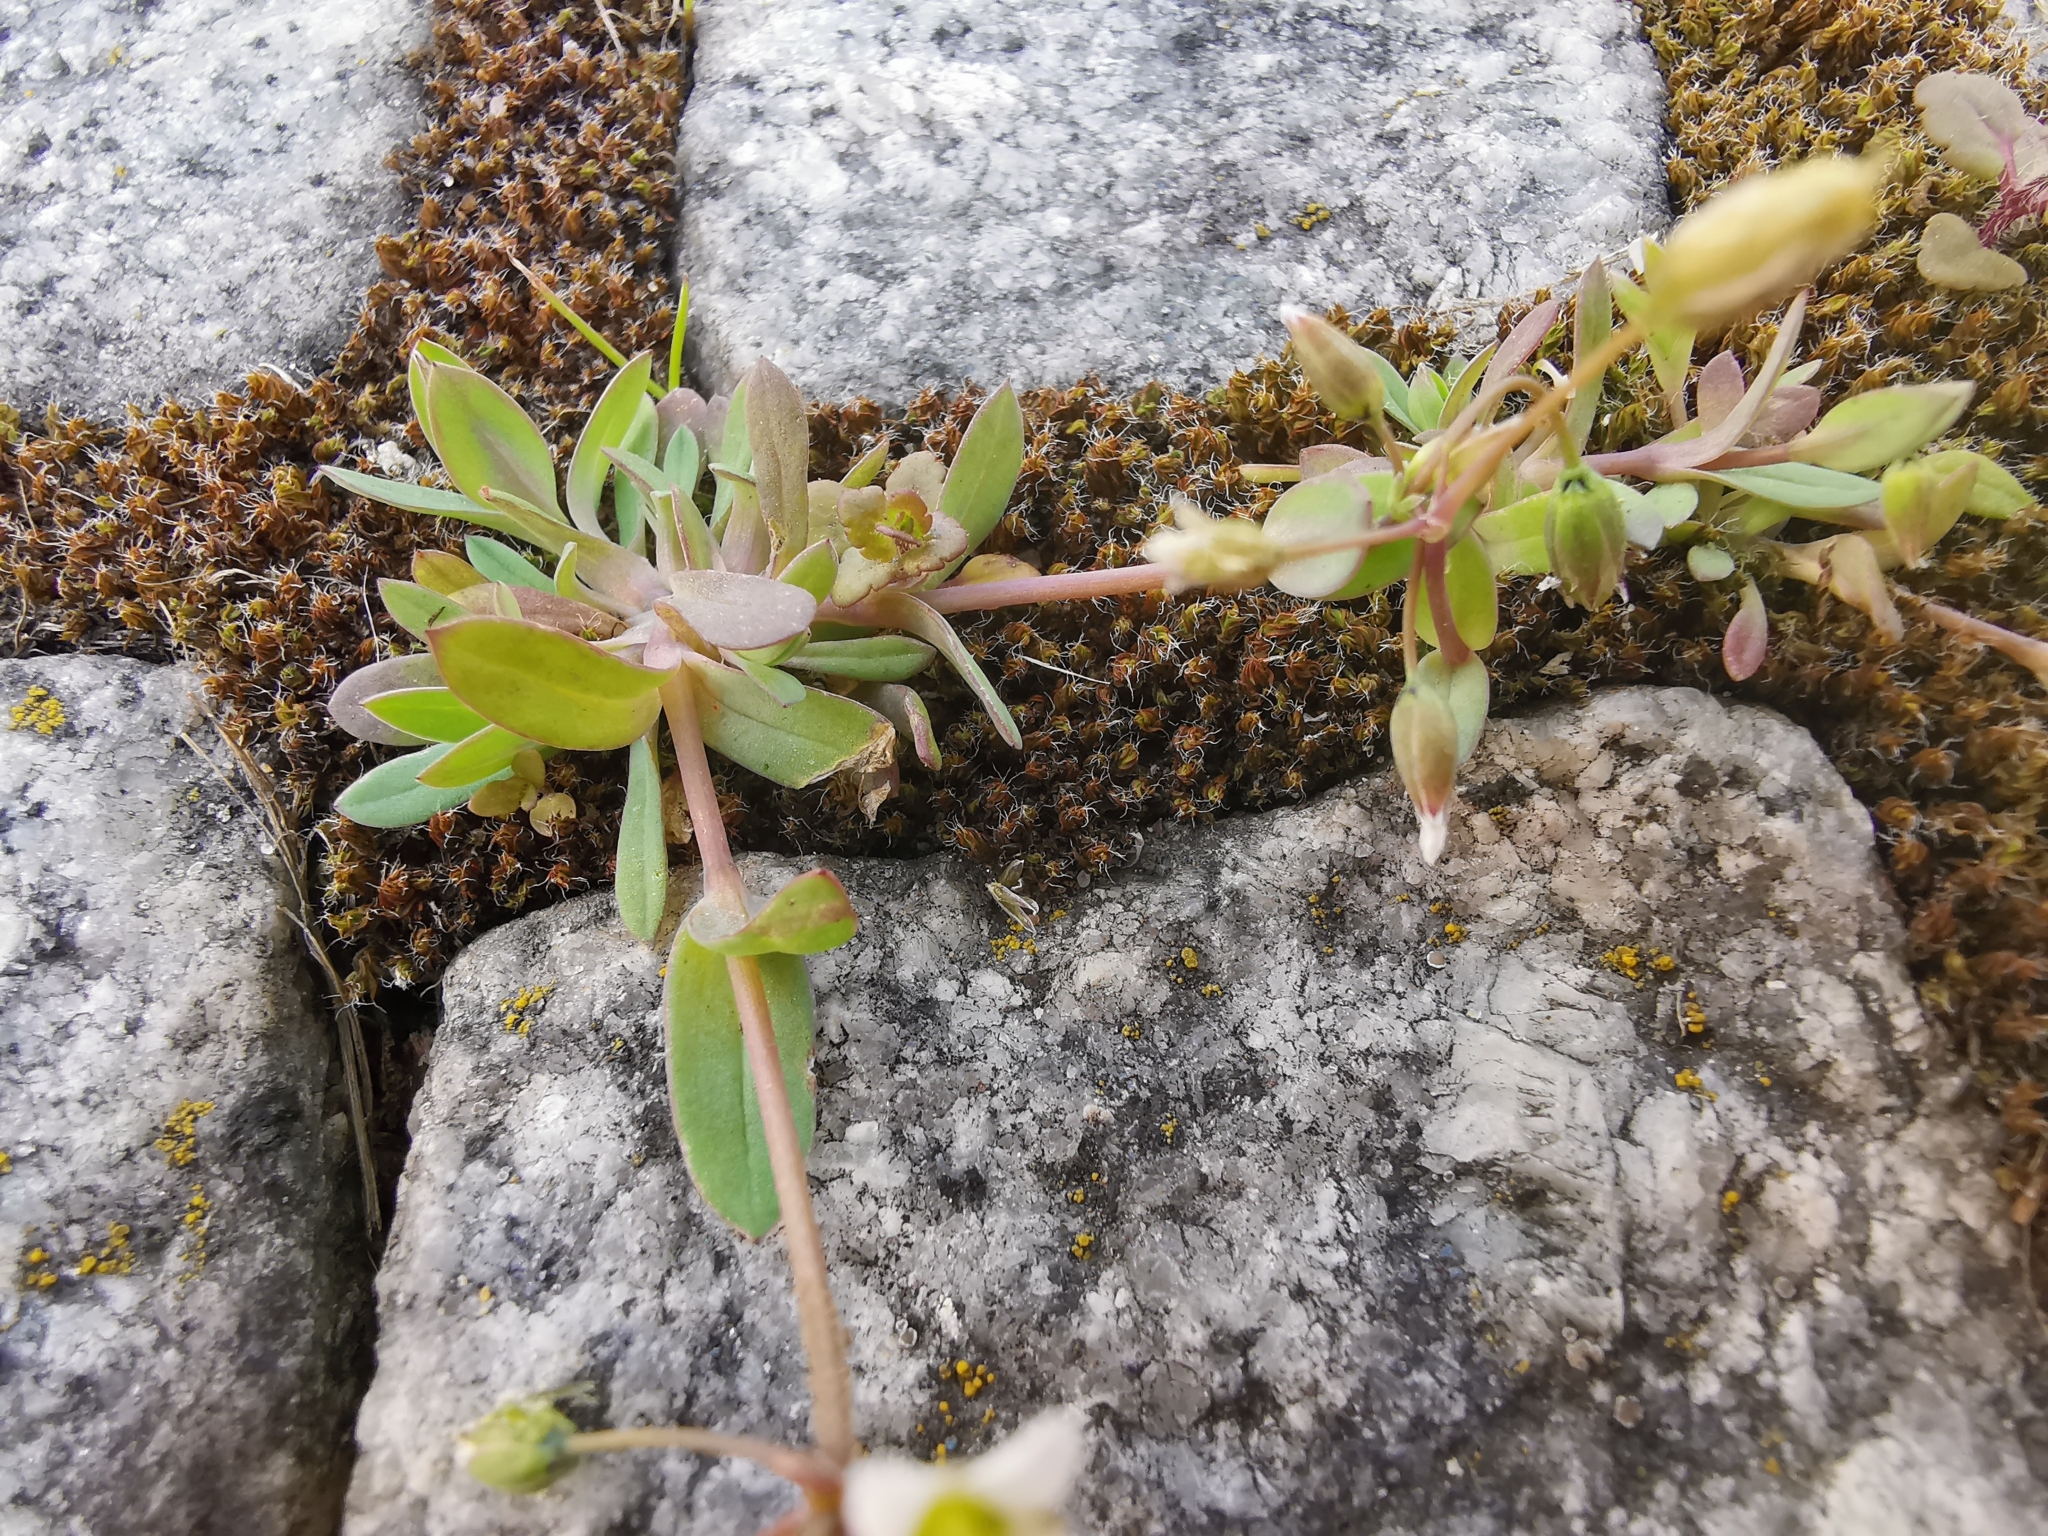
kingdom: Plantae
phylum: Tracheophyta
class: Magnoliopsida
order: Caryophyllales
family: Caryophyllaceae
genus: Holosteum
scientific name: Holosteum umbellatum
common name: Jagged chickweed
